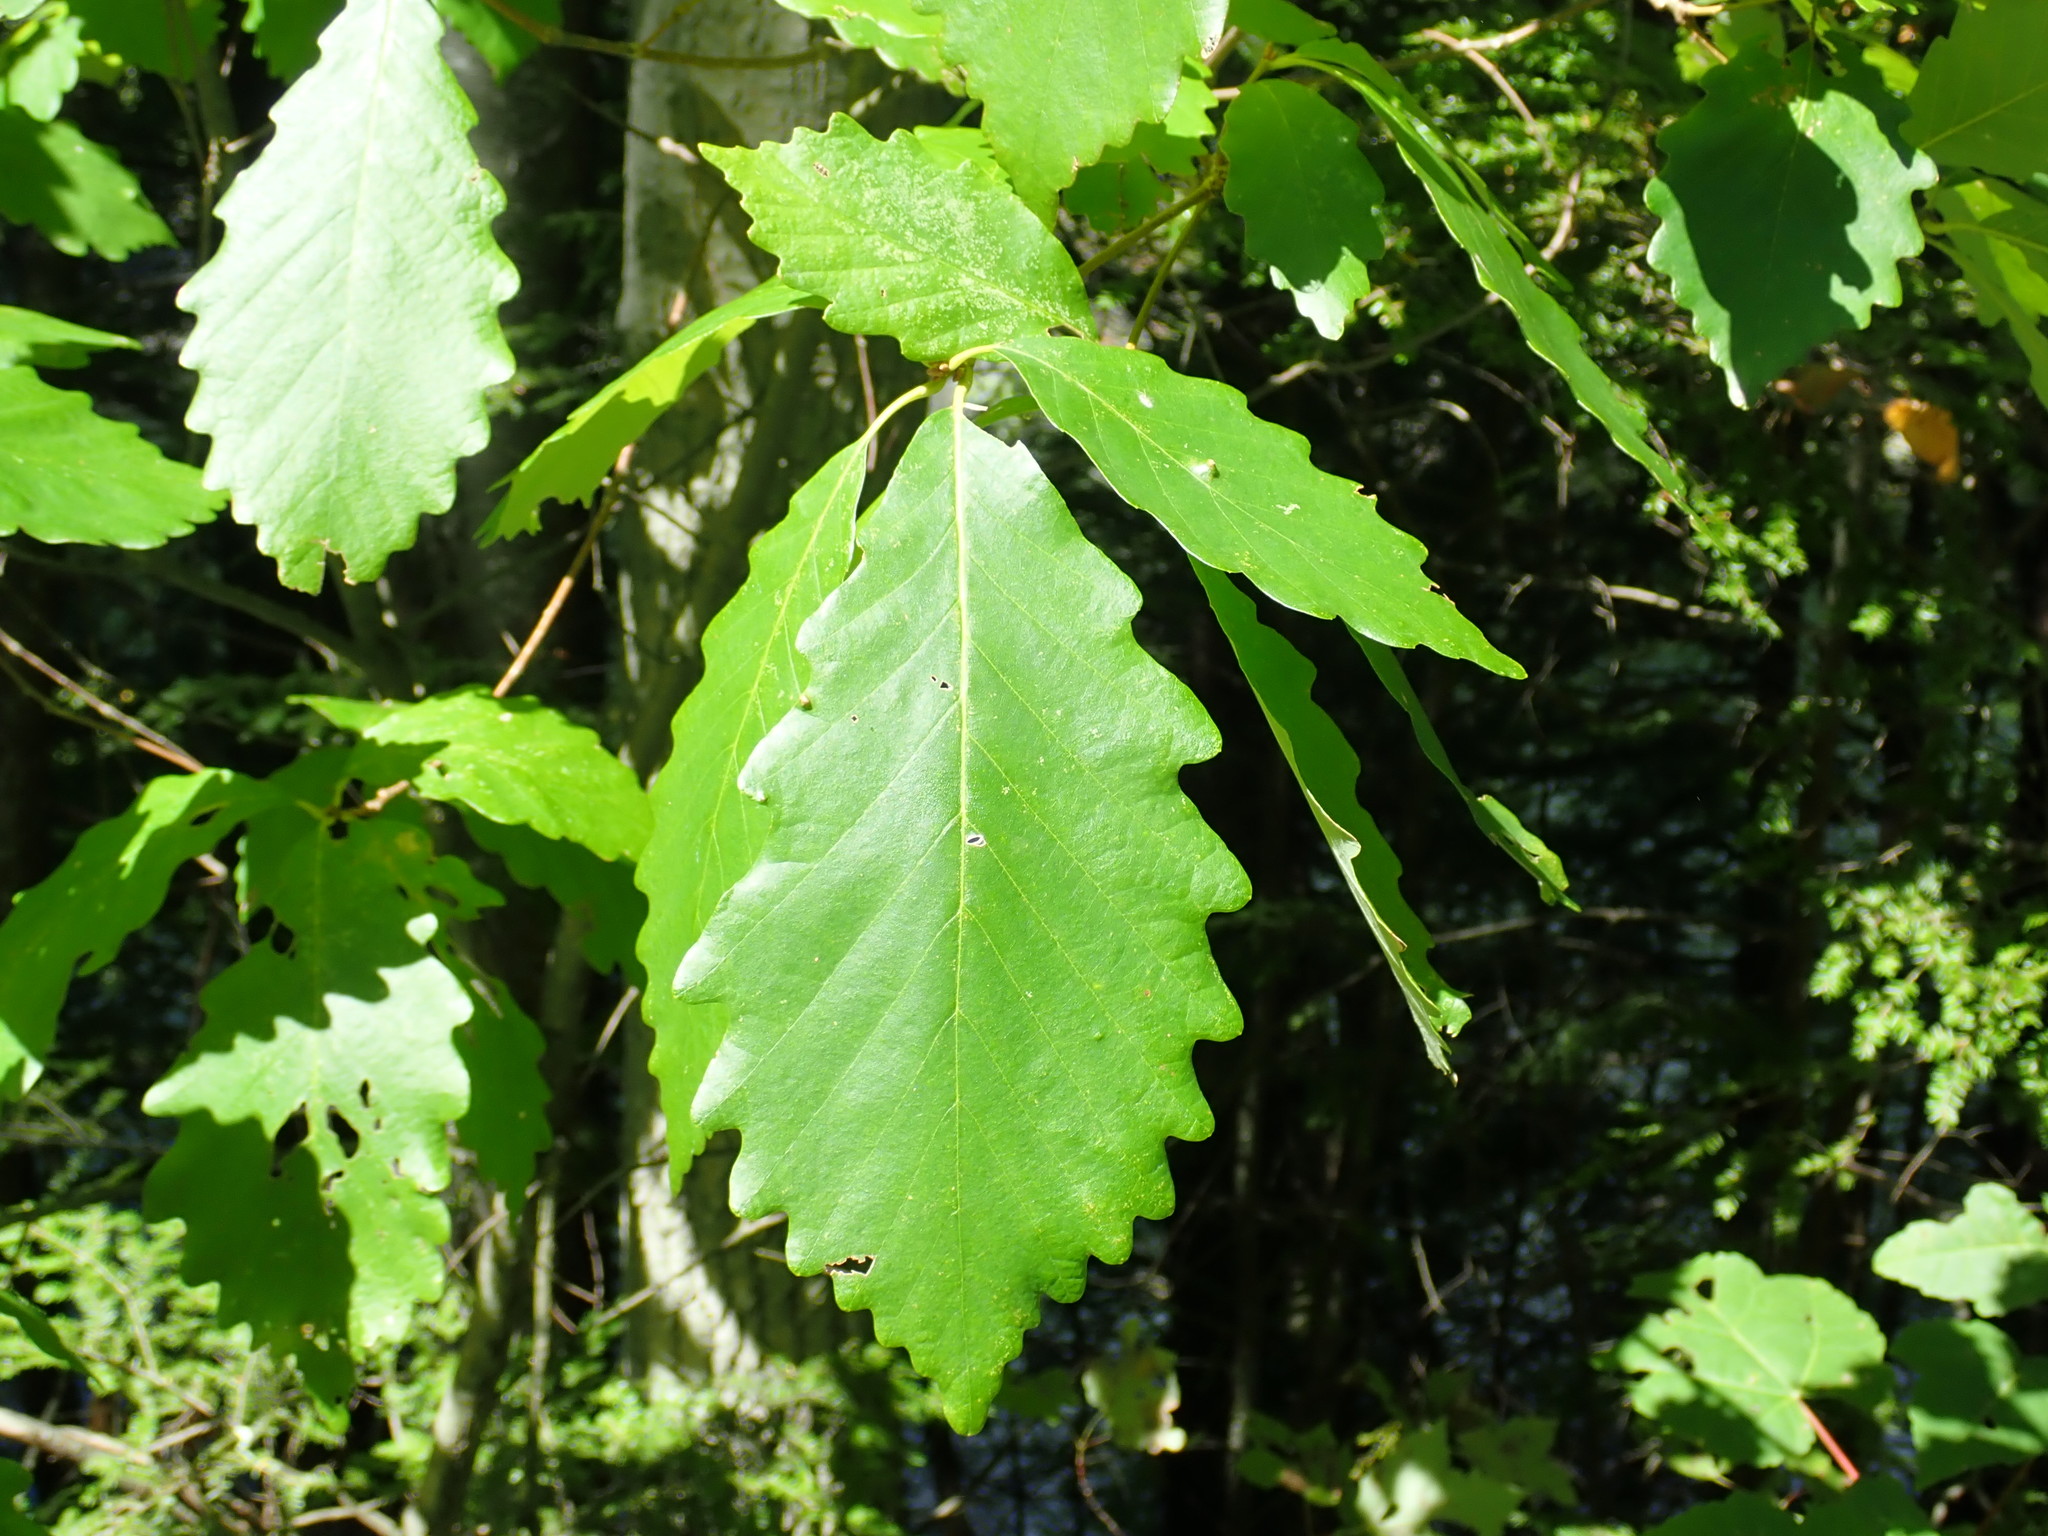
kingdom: Plantae
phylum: Tracheophyta
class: Magnoliopsida
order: Fagales
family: Fagaceae
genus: Quercus
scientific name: Quercus montana
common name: Chestnut oak
